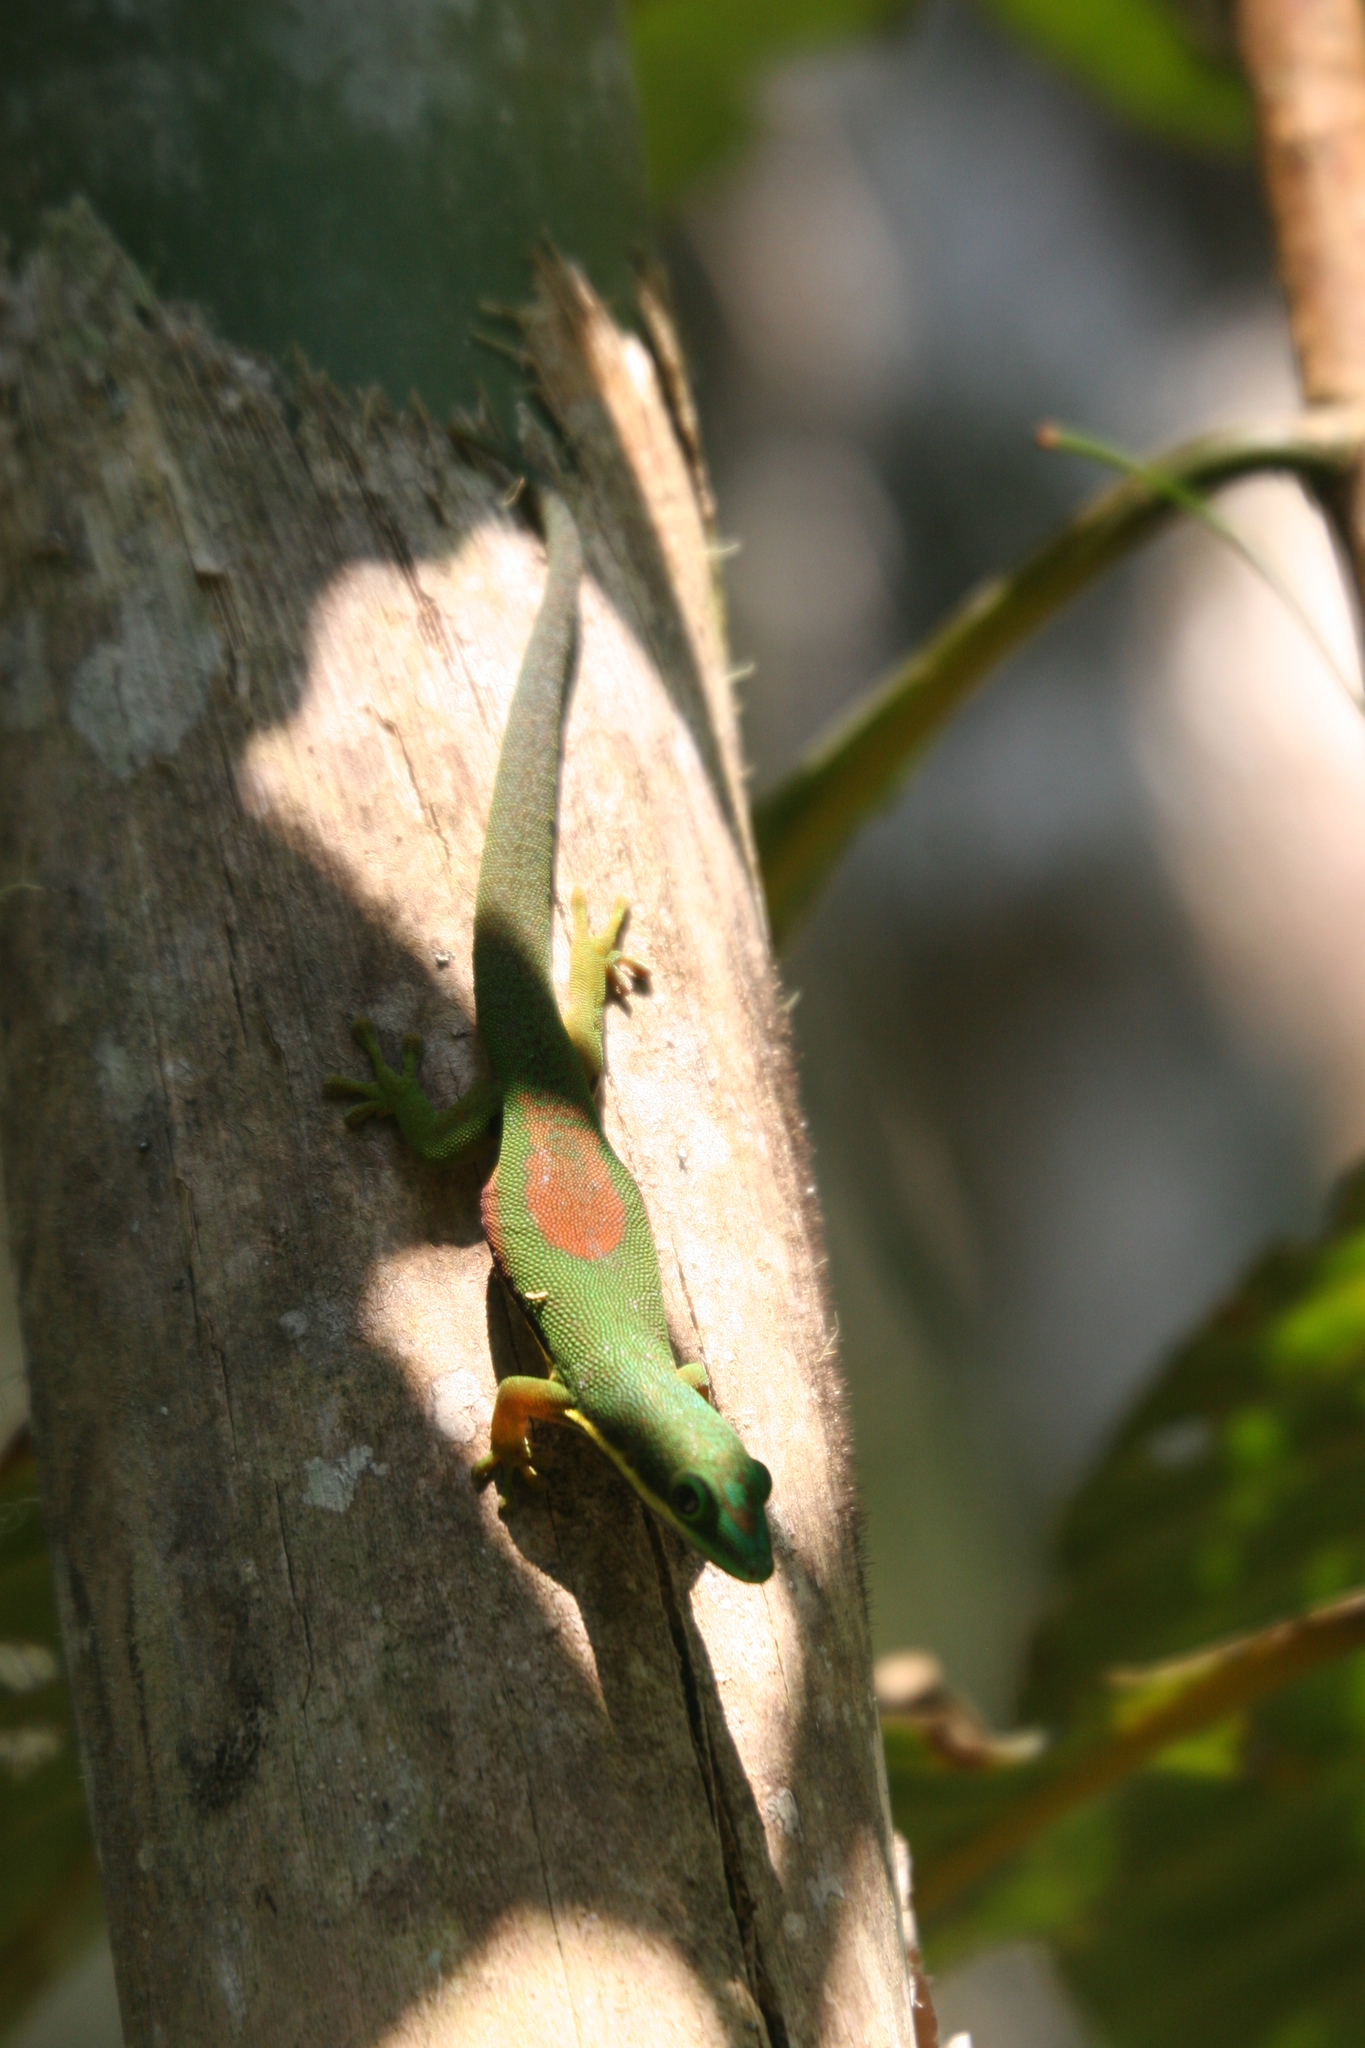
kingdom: Animalia
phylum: Chordata
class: Squamata
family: Gekkonidae
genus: Phelsuma
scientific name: Phelsuma lineata
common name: Lined day gecko
